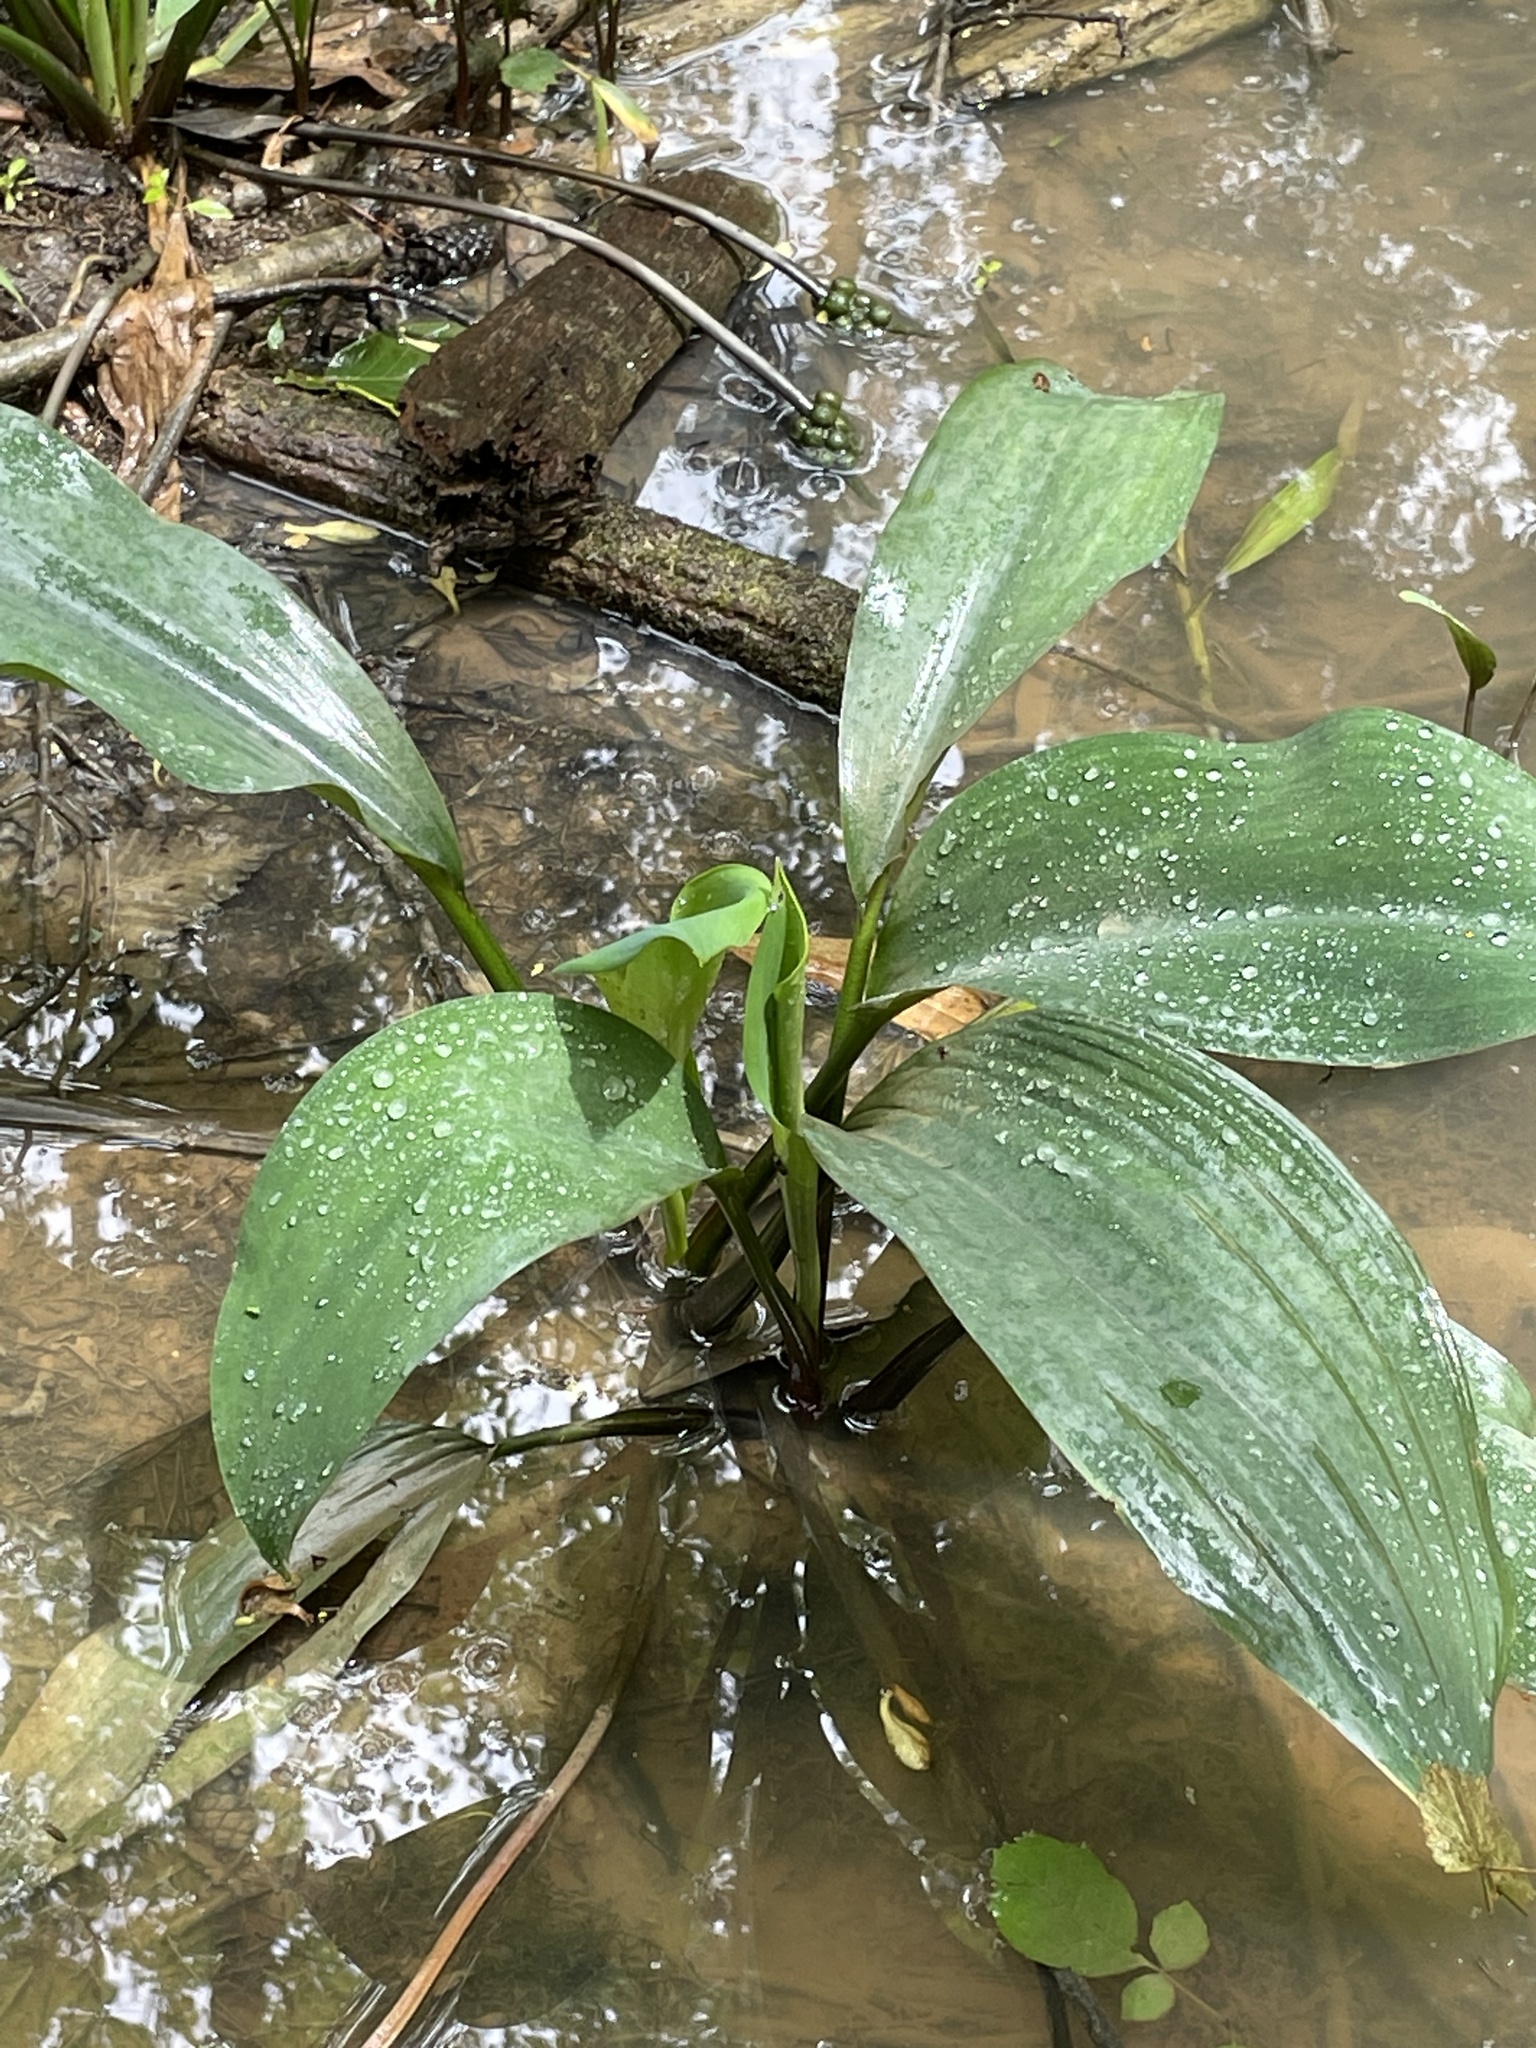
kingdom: Plantae
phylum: Tracheophyta
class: Liliopsida
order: Alismatales
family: Araceae
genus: Orontium
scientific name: Orontium aquaticum
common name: Golden-club
